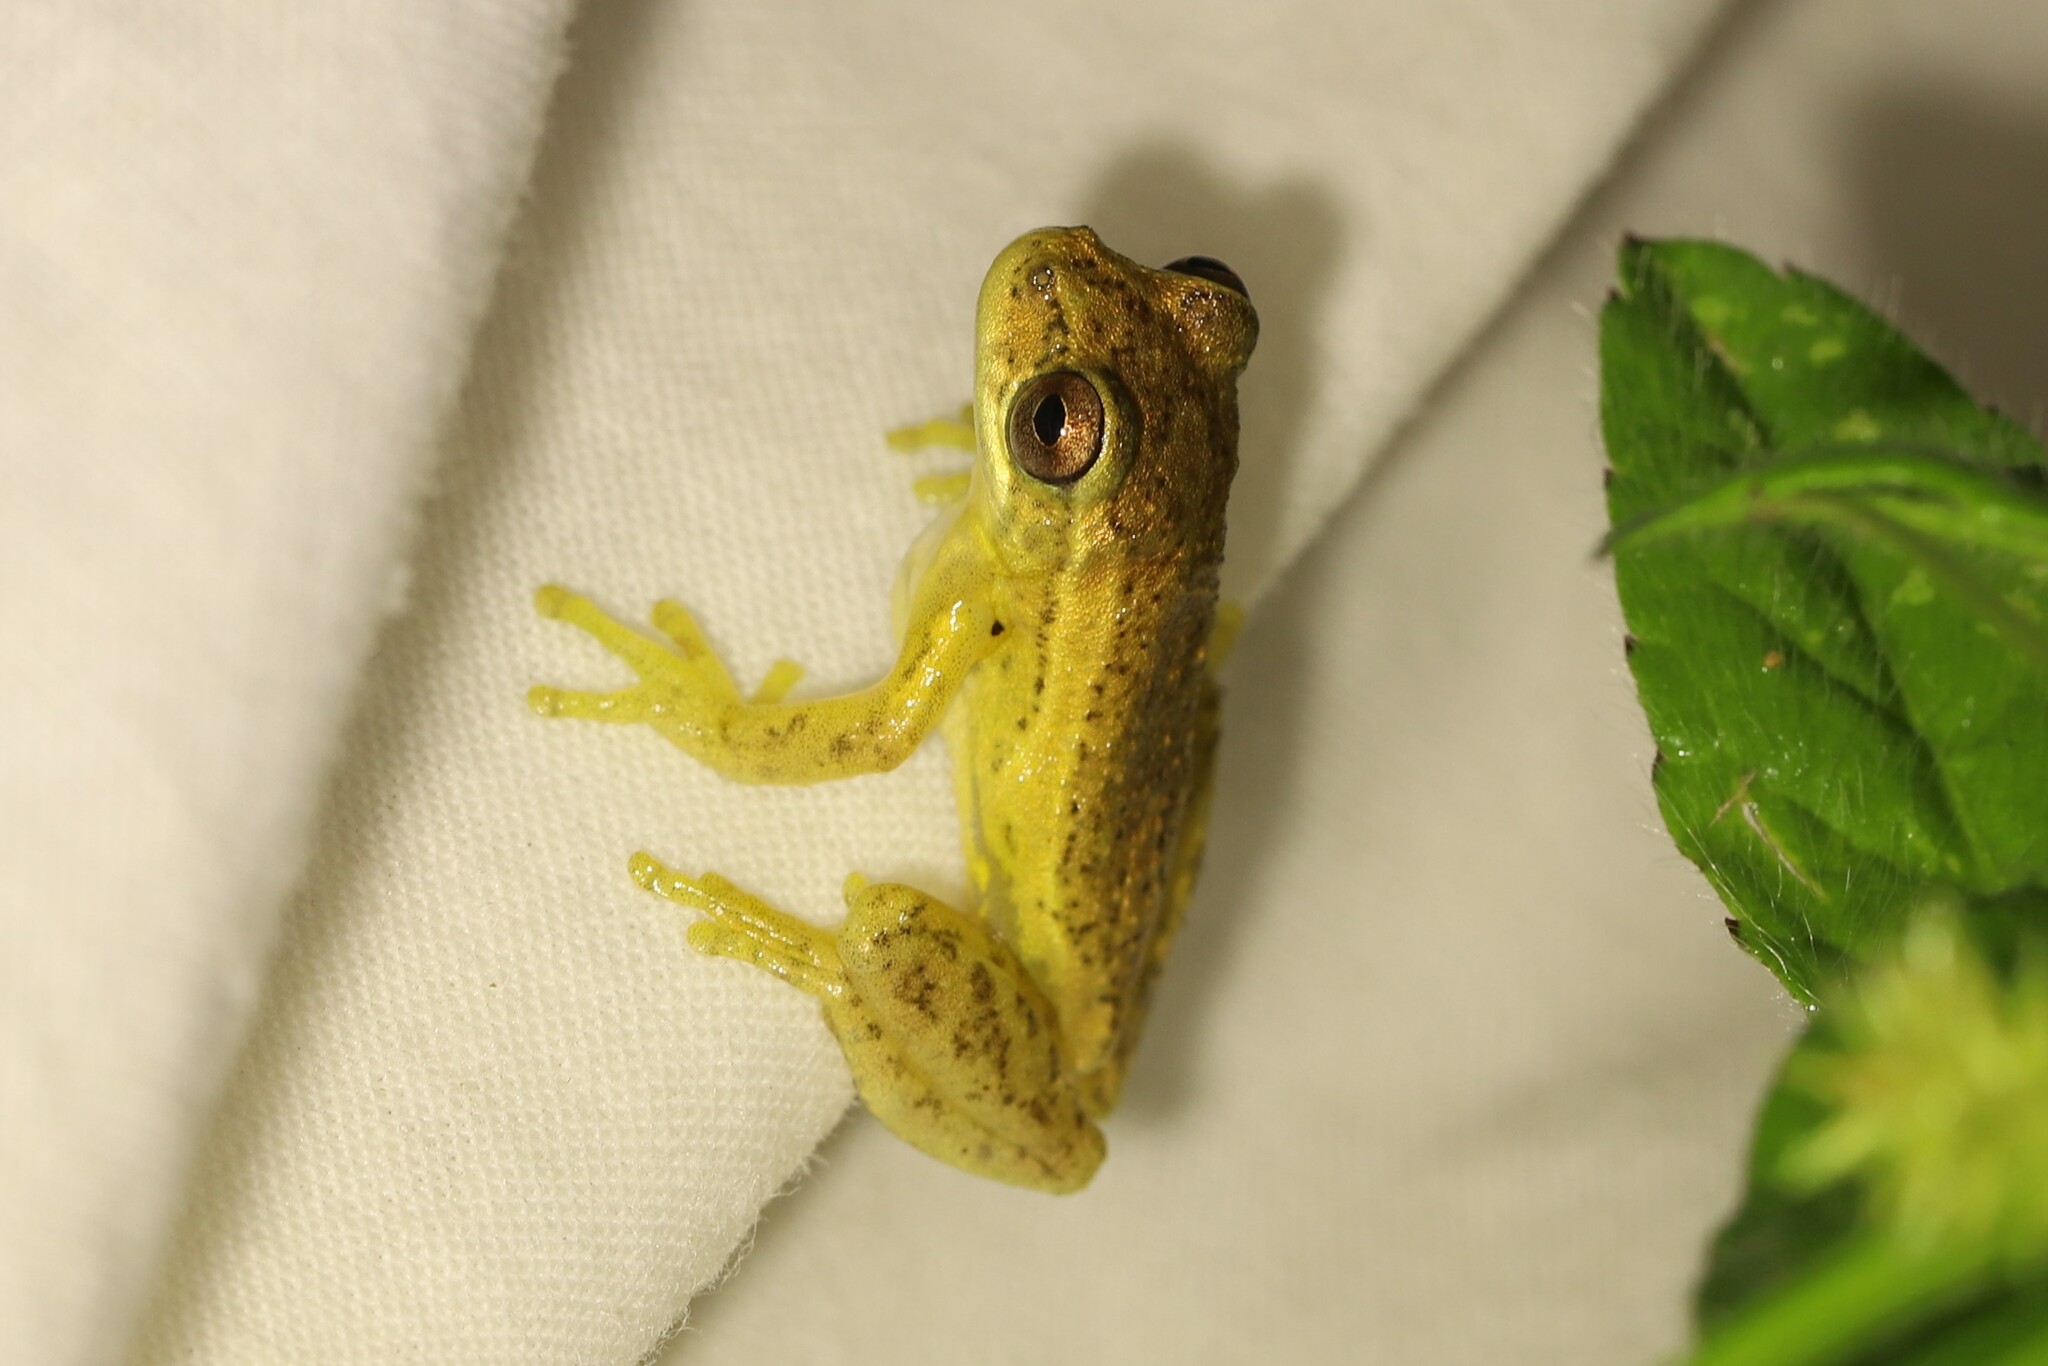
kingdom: Animalia
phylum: Chordata
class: Amphibia
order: Anura
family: Hylidae
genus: Dendropsophus
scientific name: Dendropsophus columbianus
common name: Boettger's colombian treefrog
